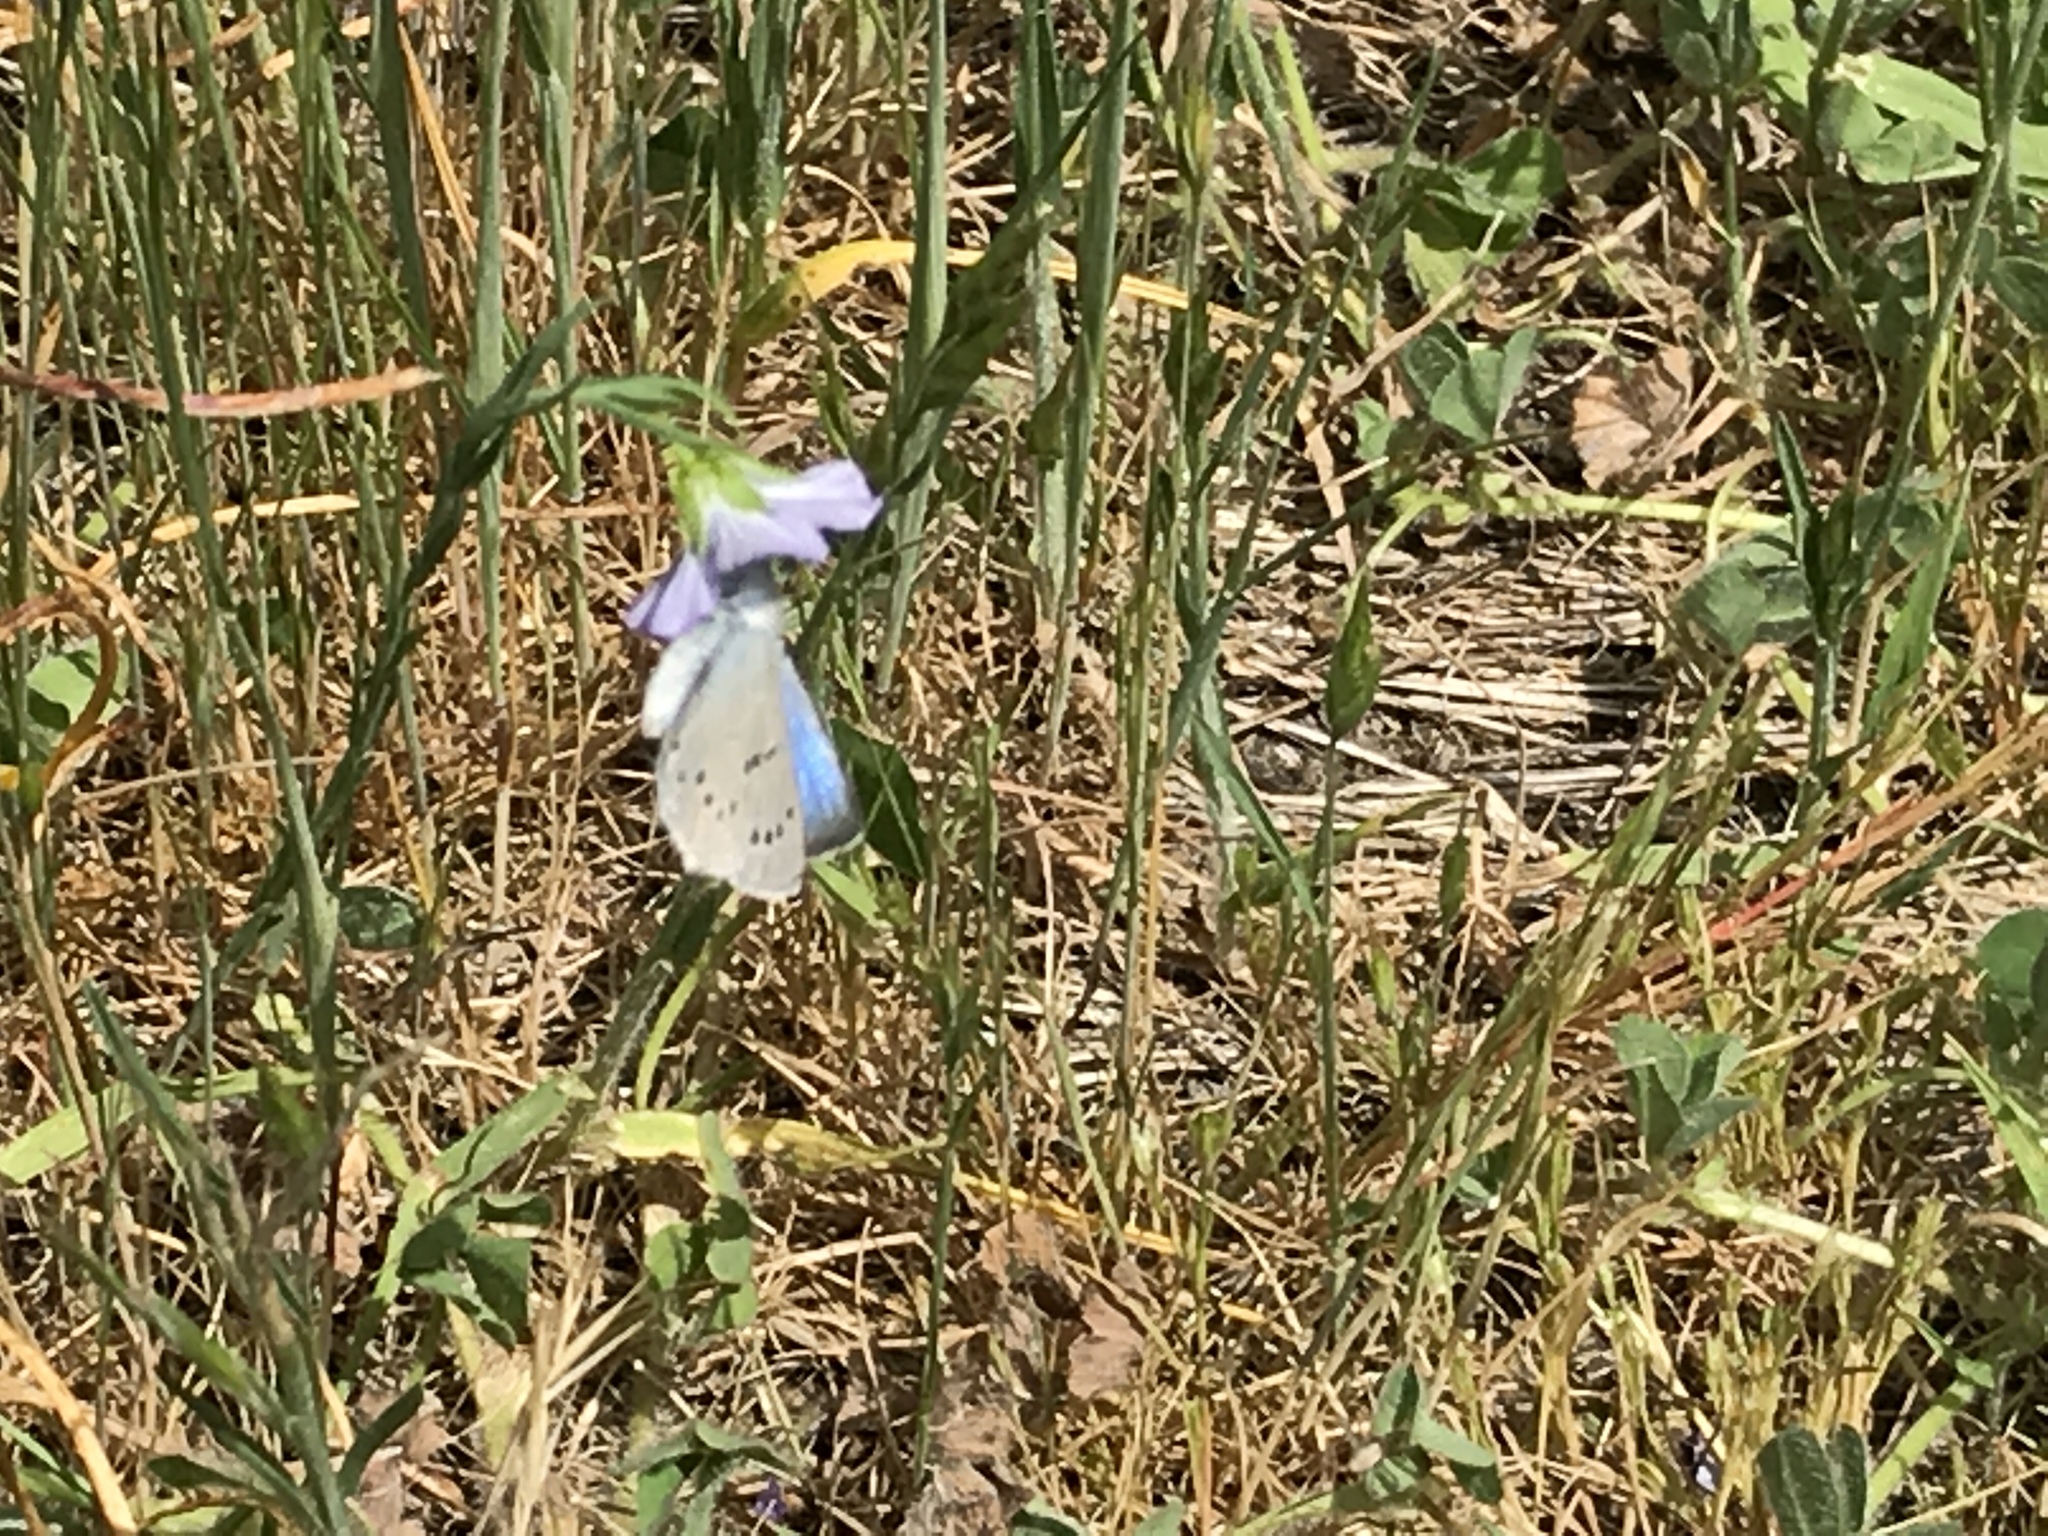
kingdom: Animalia
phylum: Arthropoda
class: Insecta
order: Lepidoptera
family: Lycaenidae
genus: Glaucopsyche
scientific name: Glaucopsyche lygdamus
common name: Silvery blue
